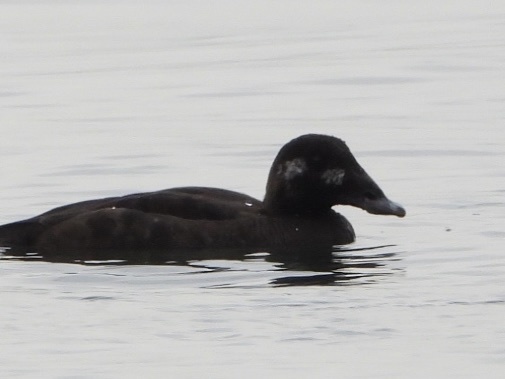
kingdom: Animalia
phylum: Chordata
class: Aves
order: Anseriformes
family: Anatidae
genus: Melanitta
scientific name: Melanitta deglandi
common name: White-winged scoter
